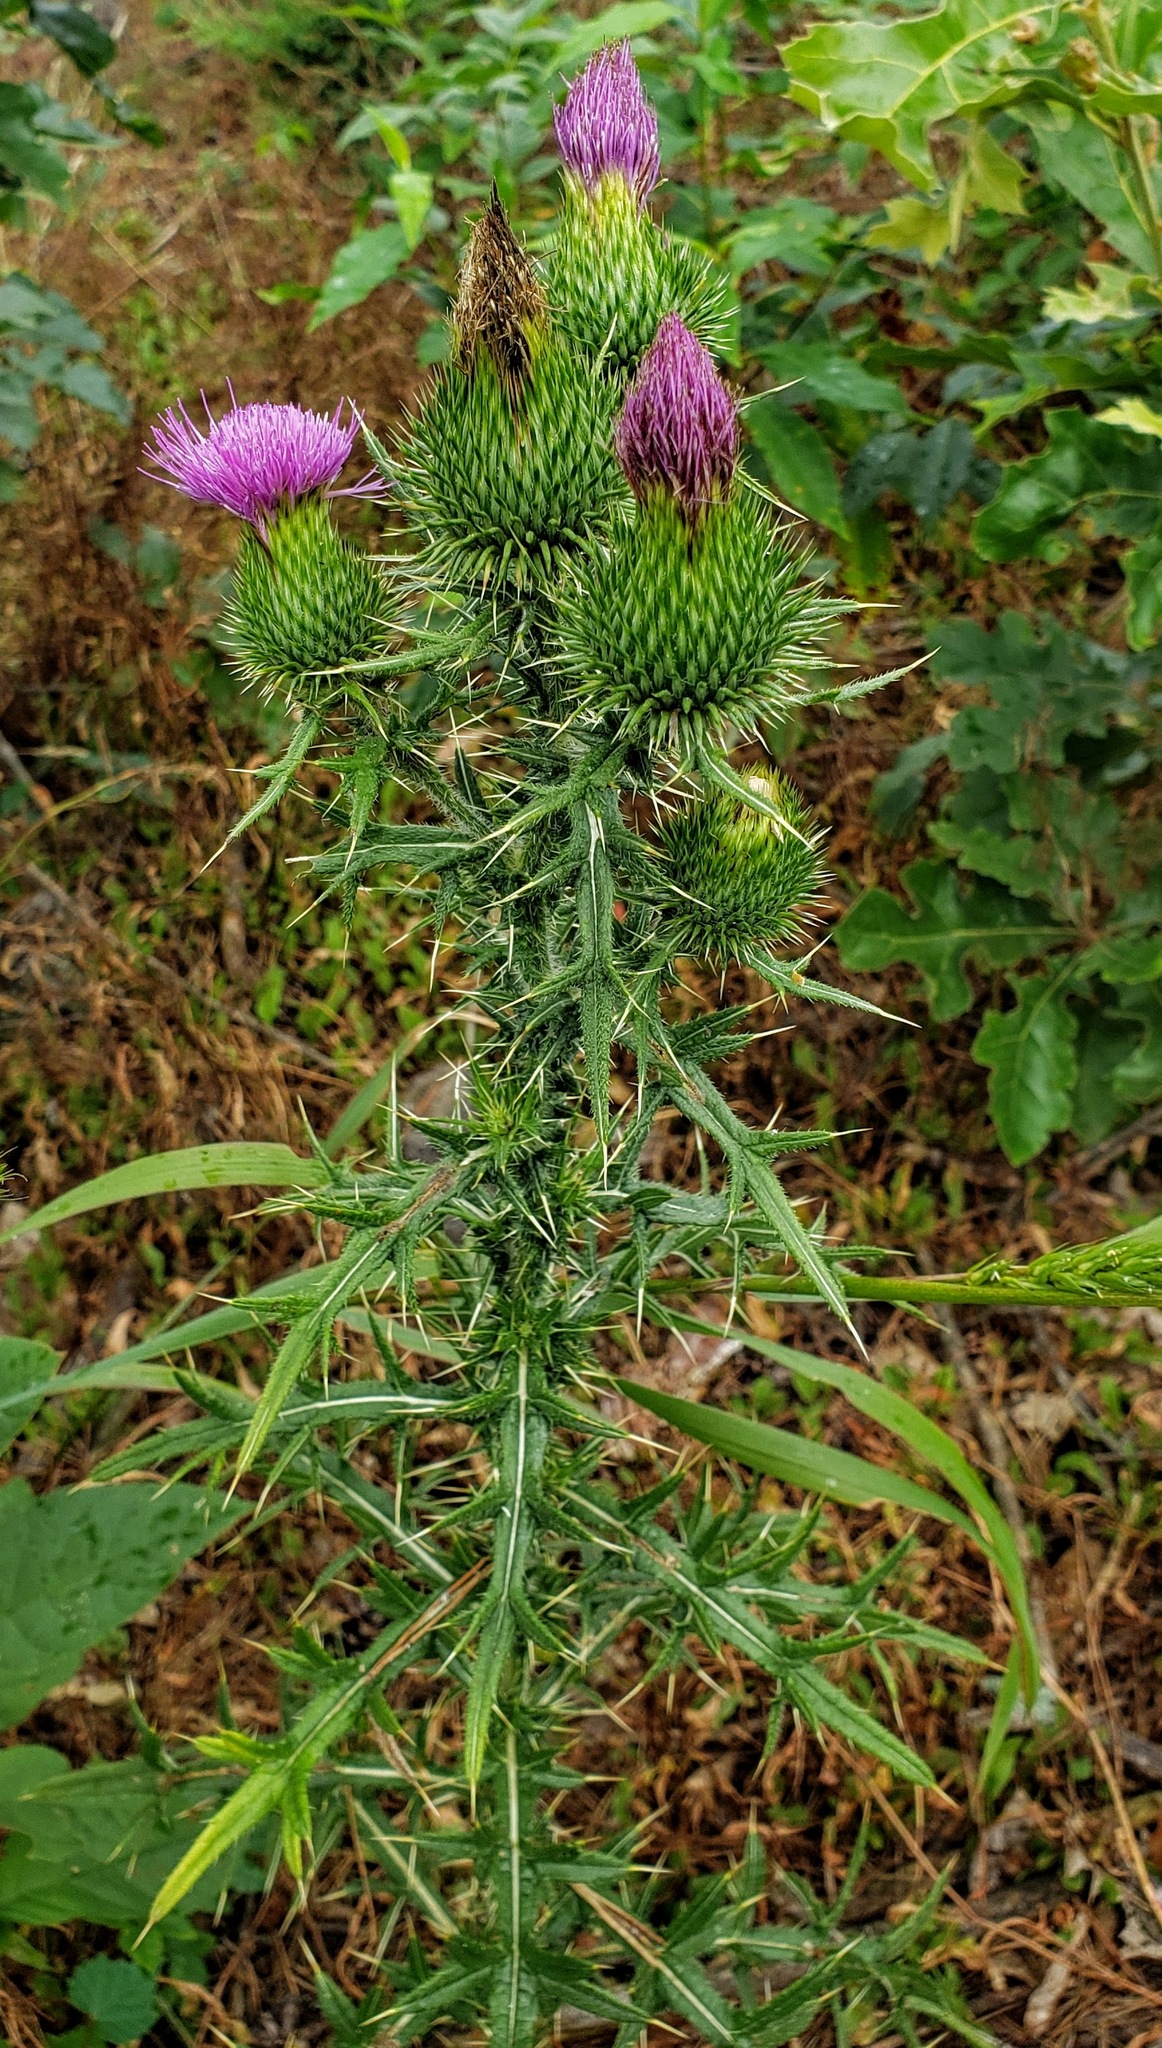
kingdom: Plantae
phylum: Tracheophyta
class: Magnoliopsida
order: Asterales
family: Asteraceae
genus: Cirsium
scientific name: Cirsium vulgare
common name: Bull thistle
